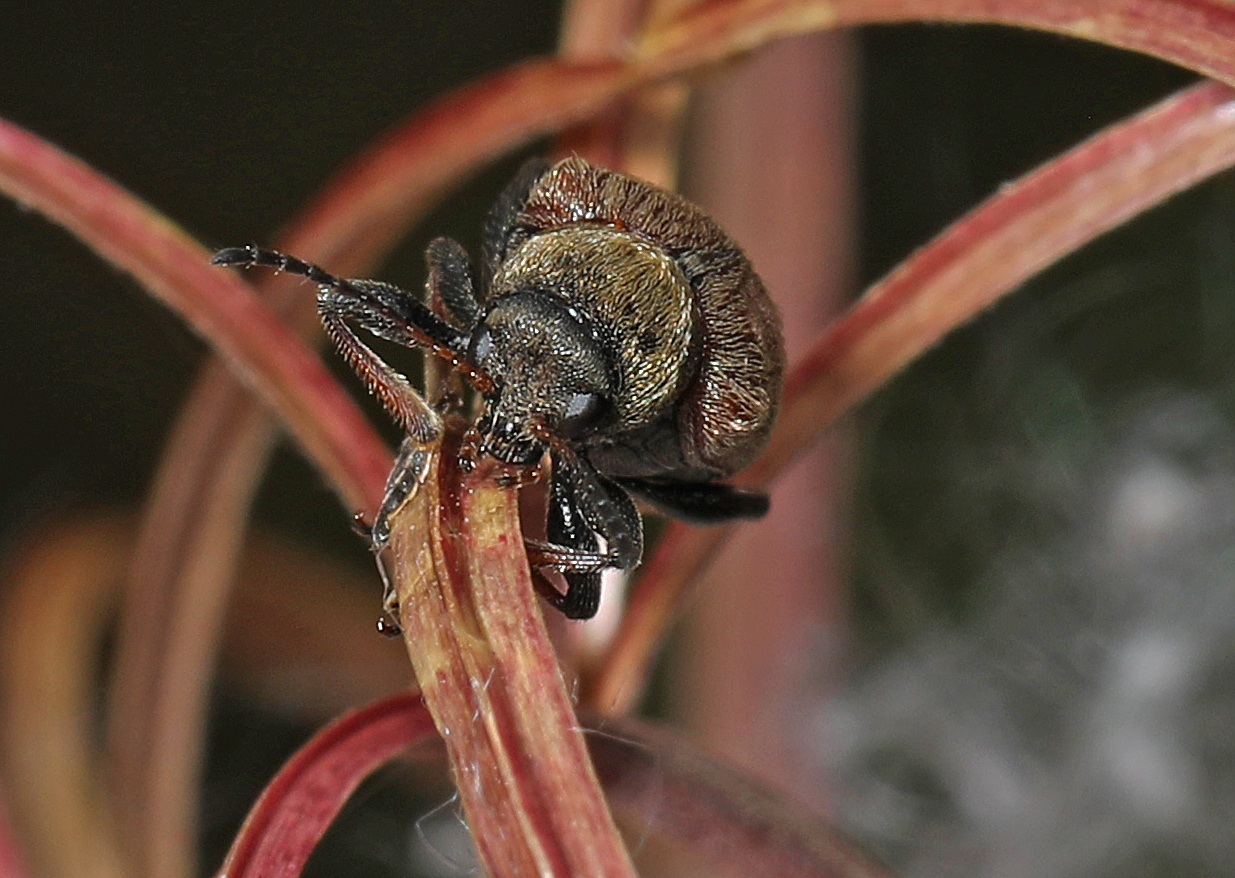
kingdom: Animalia
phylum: Arthropoda
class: Insecta
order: Coleoptera
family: Chrysomelidae
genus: Bromius
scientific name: Bromius obscurus
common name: Western grape rootworm
